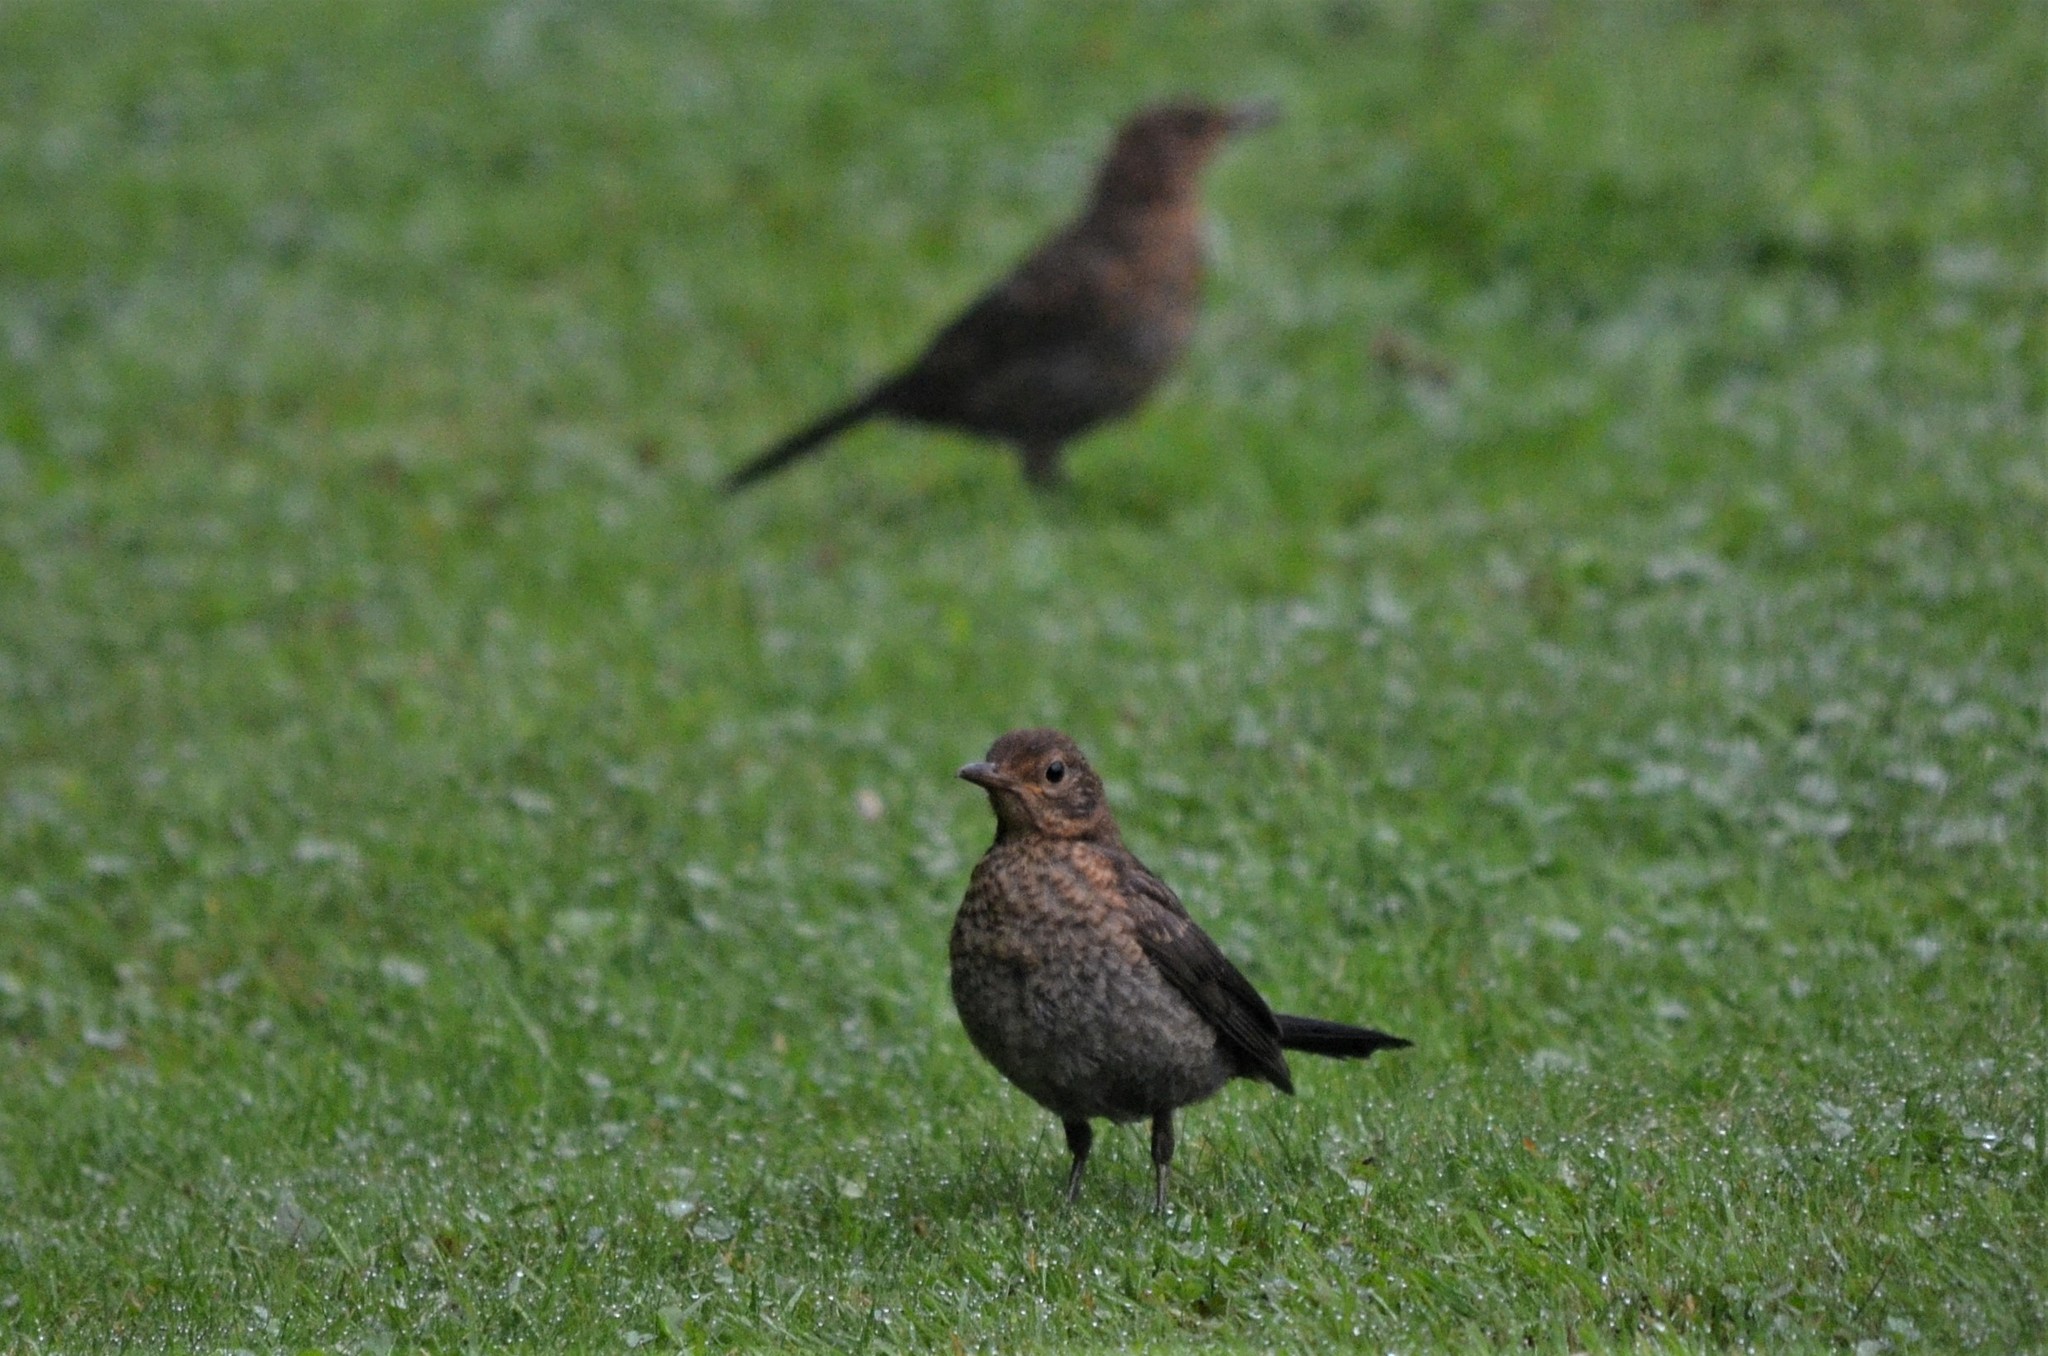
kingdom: Animalia
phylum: Chordata
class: Aves
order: Passeriformes
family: Turdidae
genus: Turdus
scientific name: Turdus merula
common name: Common blackbird
